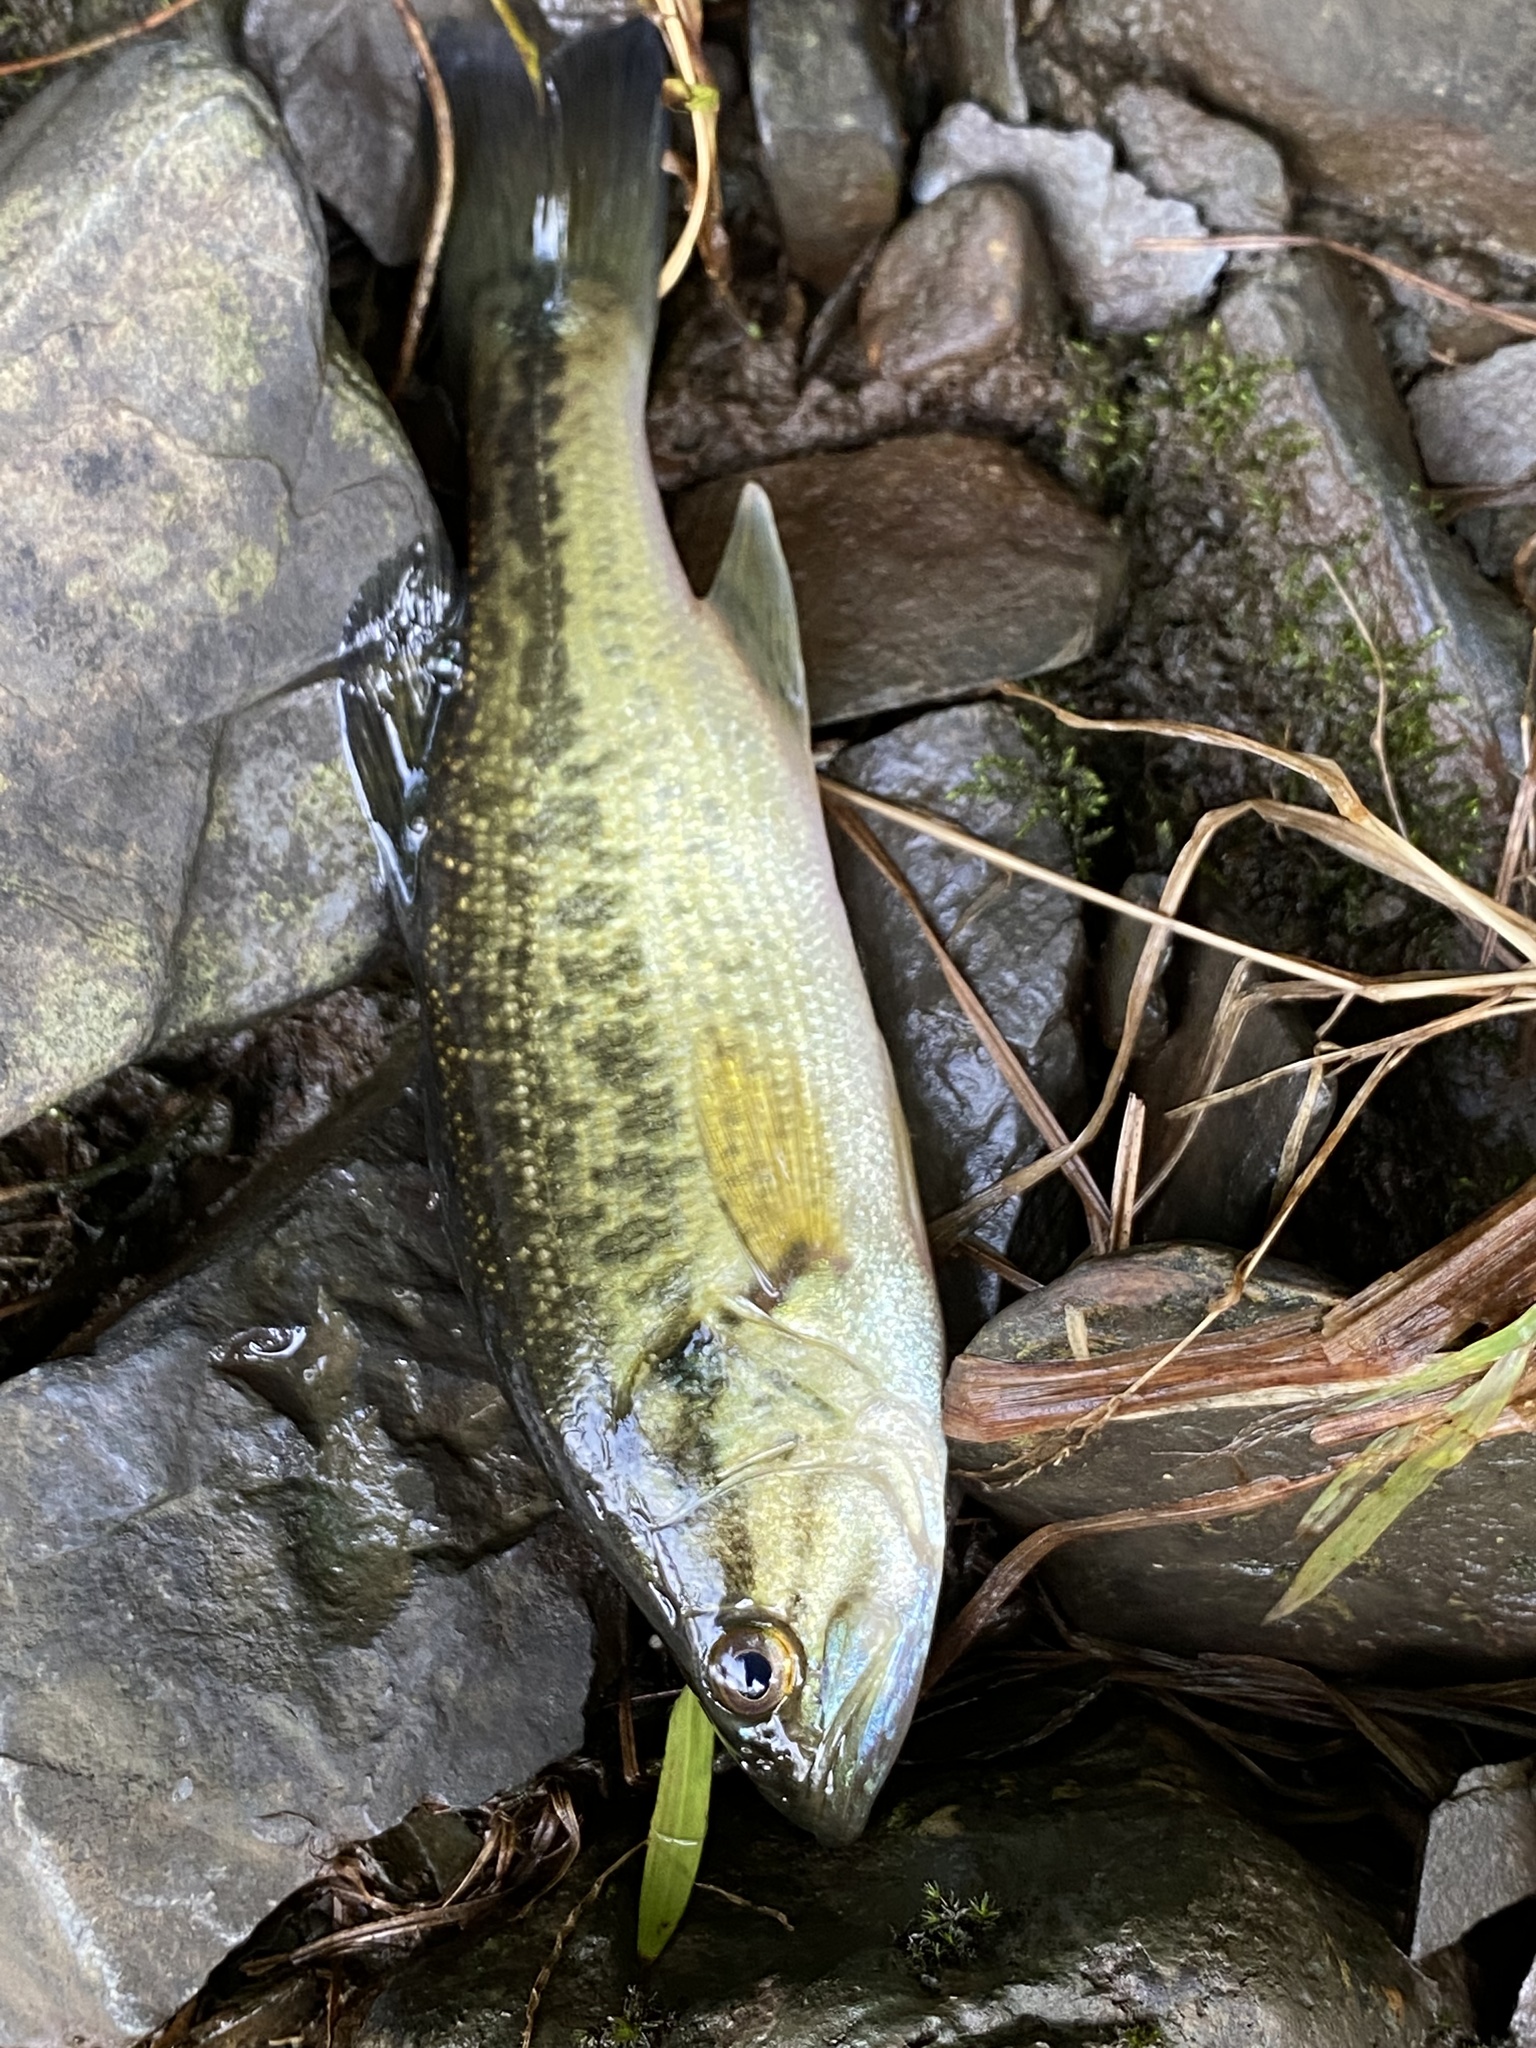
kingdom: Animalia
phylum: Chordata
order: Perciformes
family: Centrarchidae
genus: Micropterus
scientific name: Micropterus
